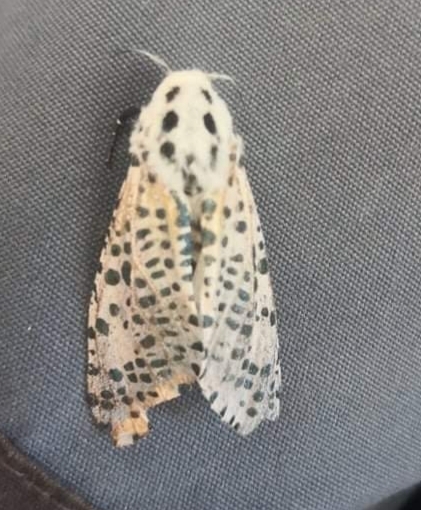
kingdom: Animalia
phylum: Arthropoda
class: Insecta
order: Lepidoptera
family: Cossidae
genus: Zeuzera
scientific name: Zeuzera pyrina
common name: Leopard moth
